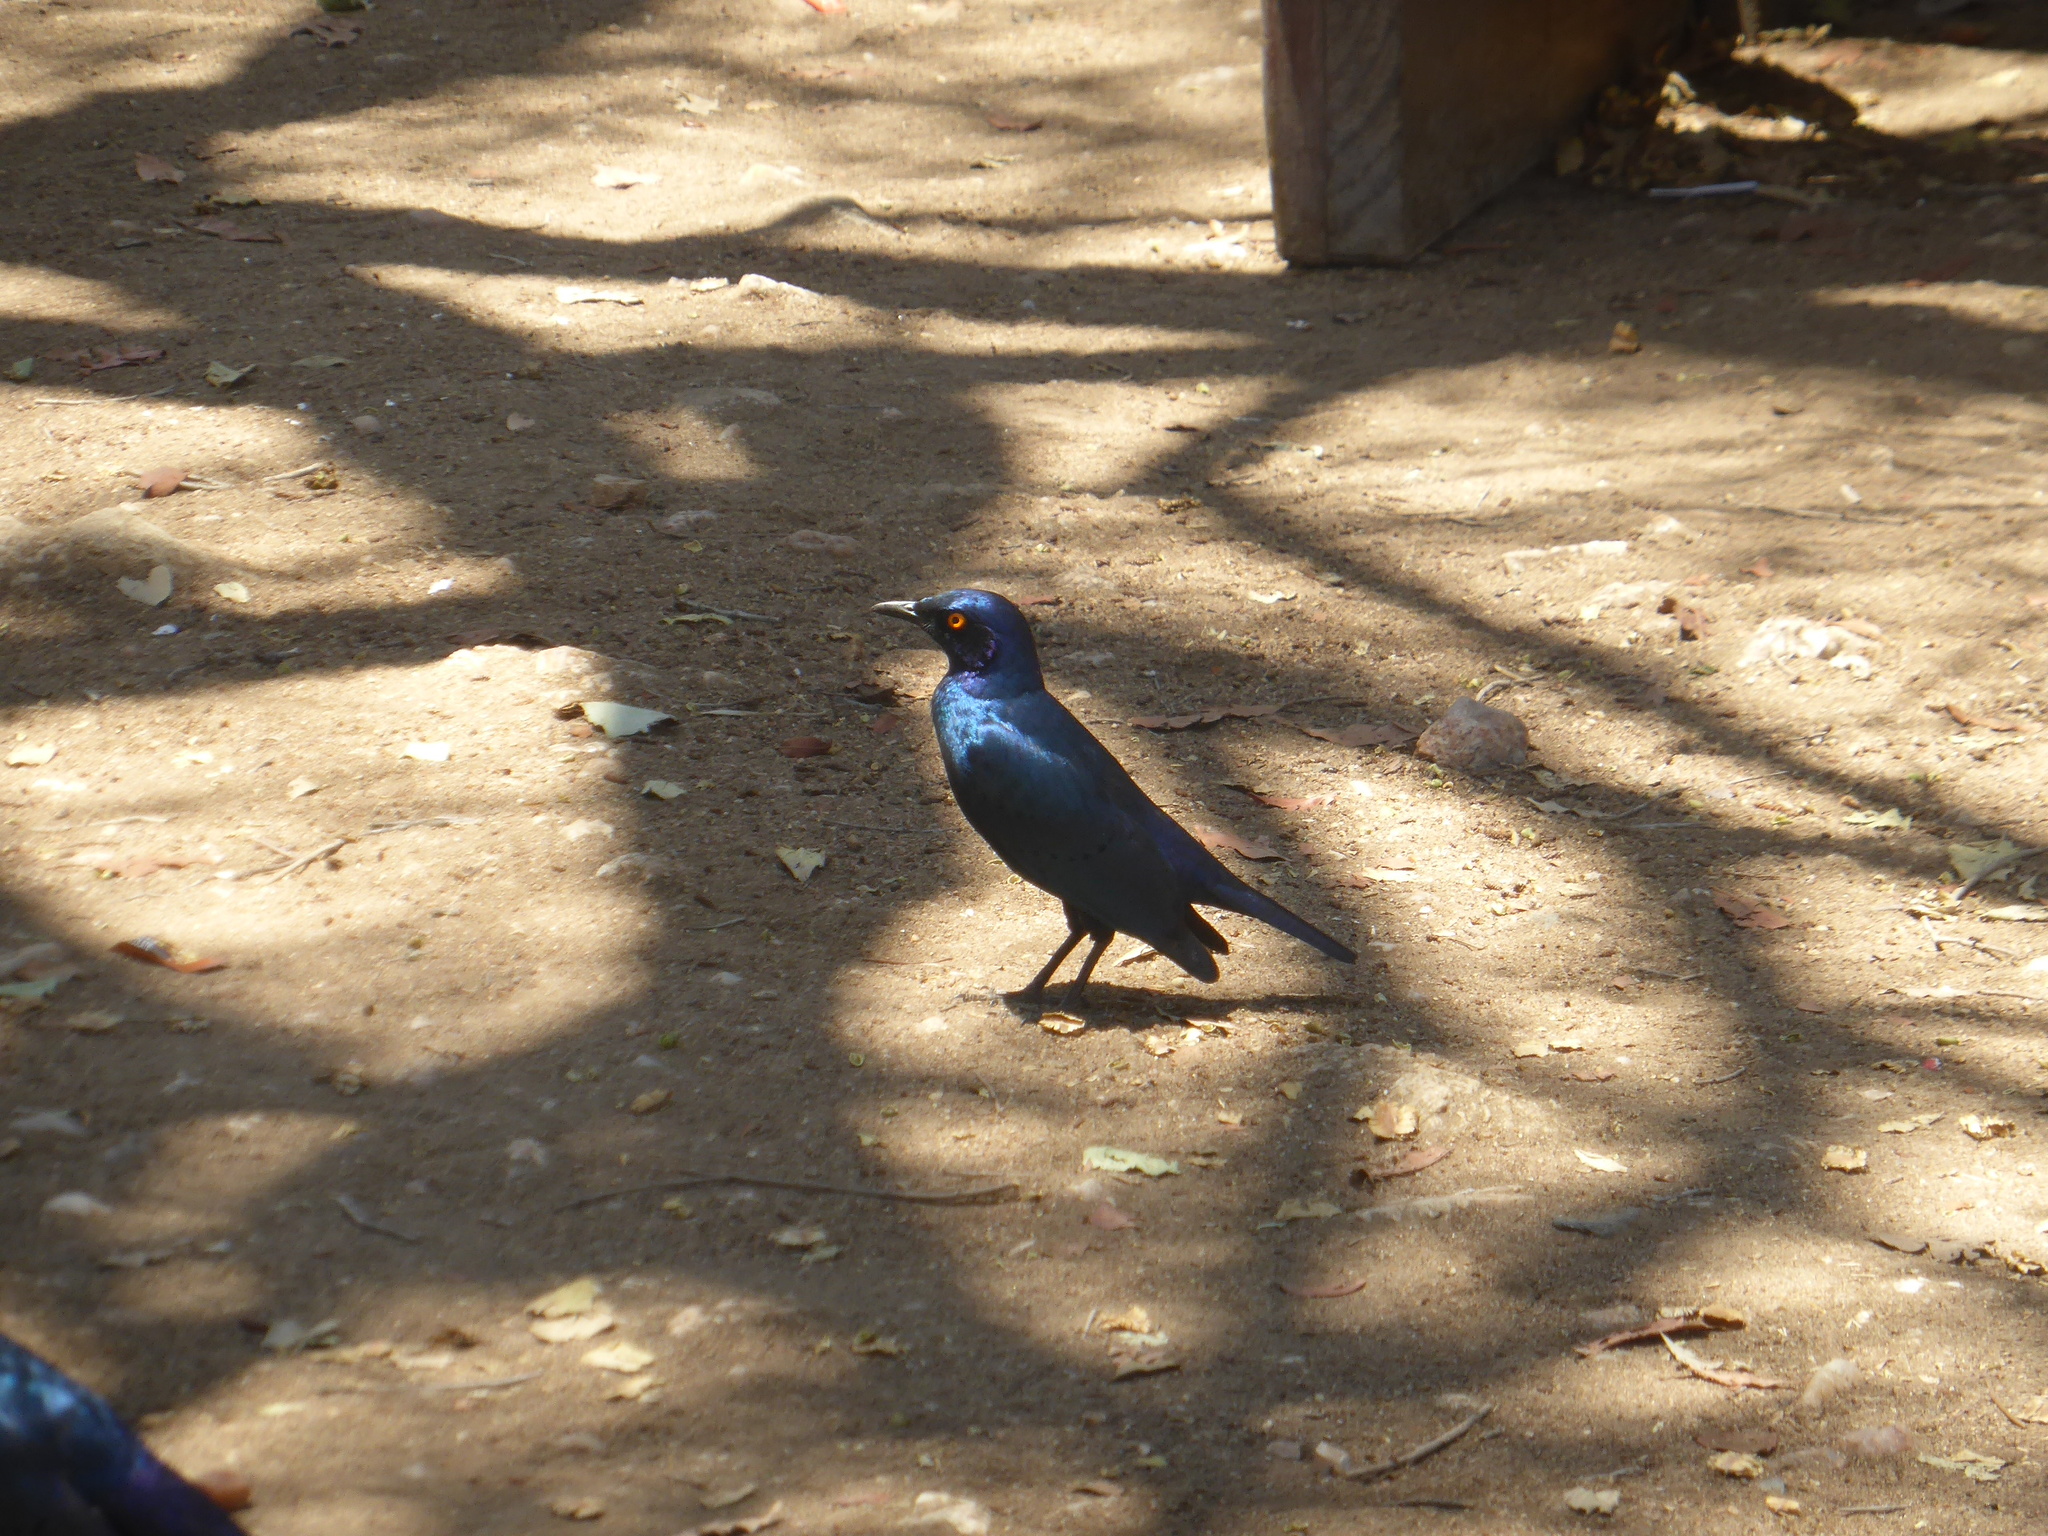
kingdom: Animalia
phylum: Chordata
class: Aves
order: Passeriformes
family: Sturnidae
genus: Lamprotornis
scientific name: Lamprotornis nitens
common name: Cape starling
